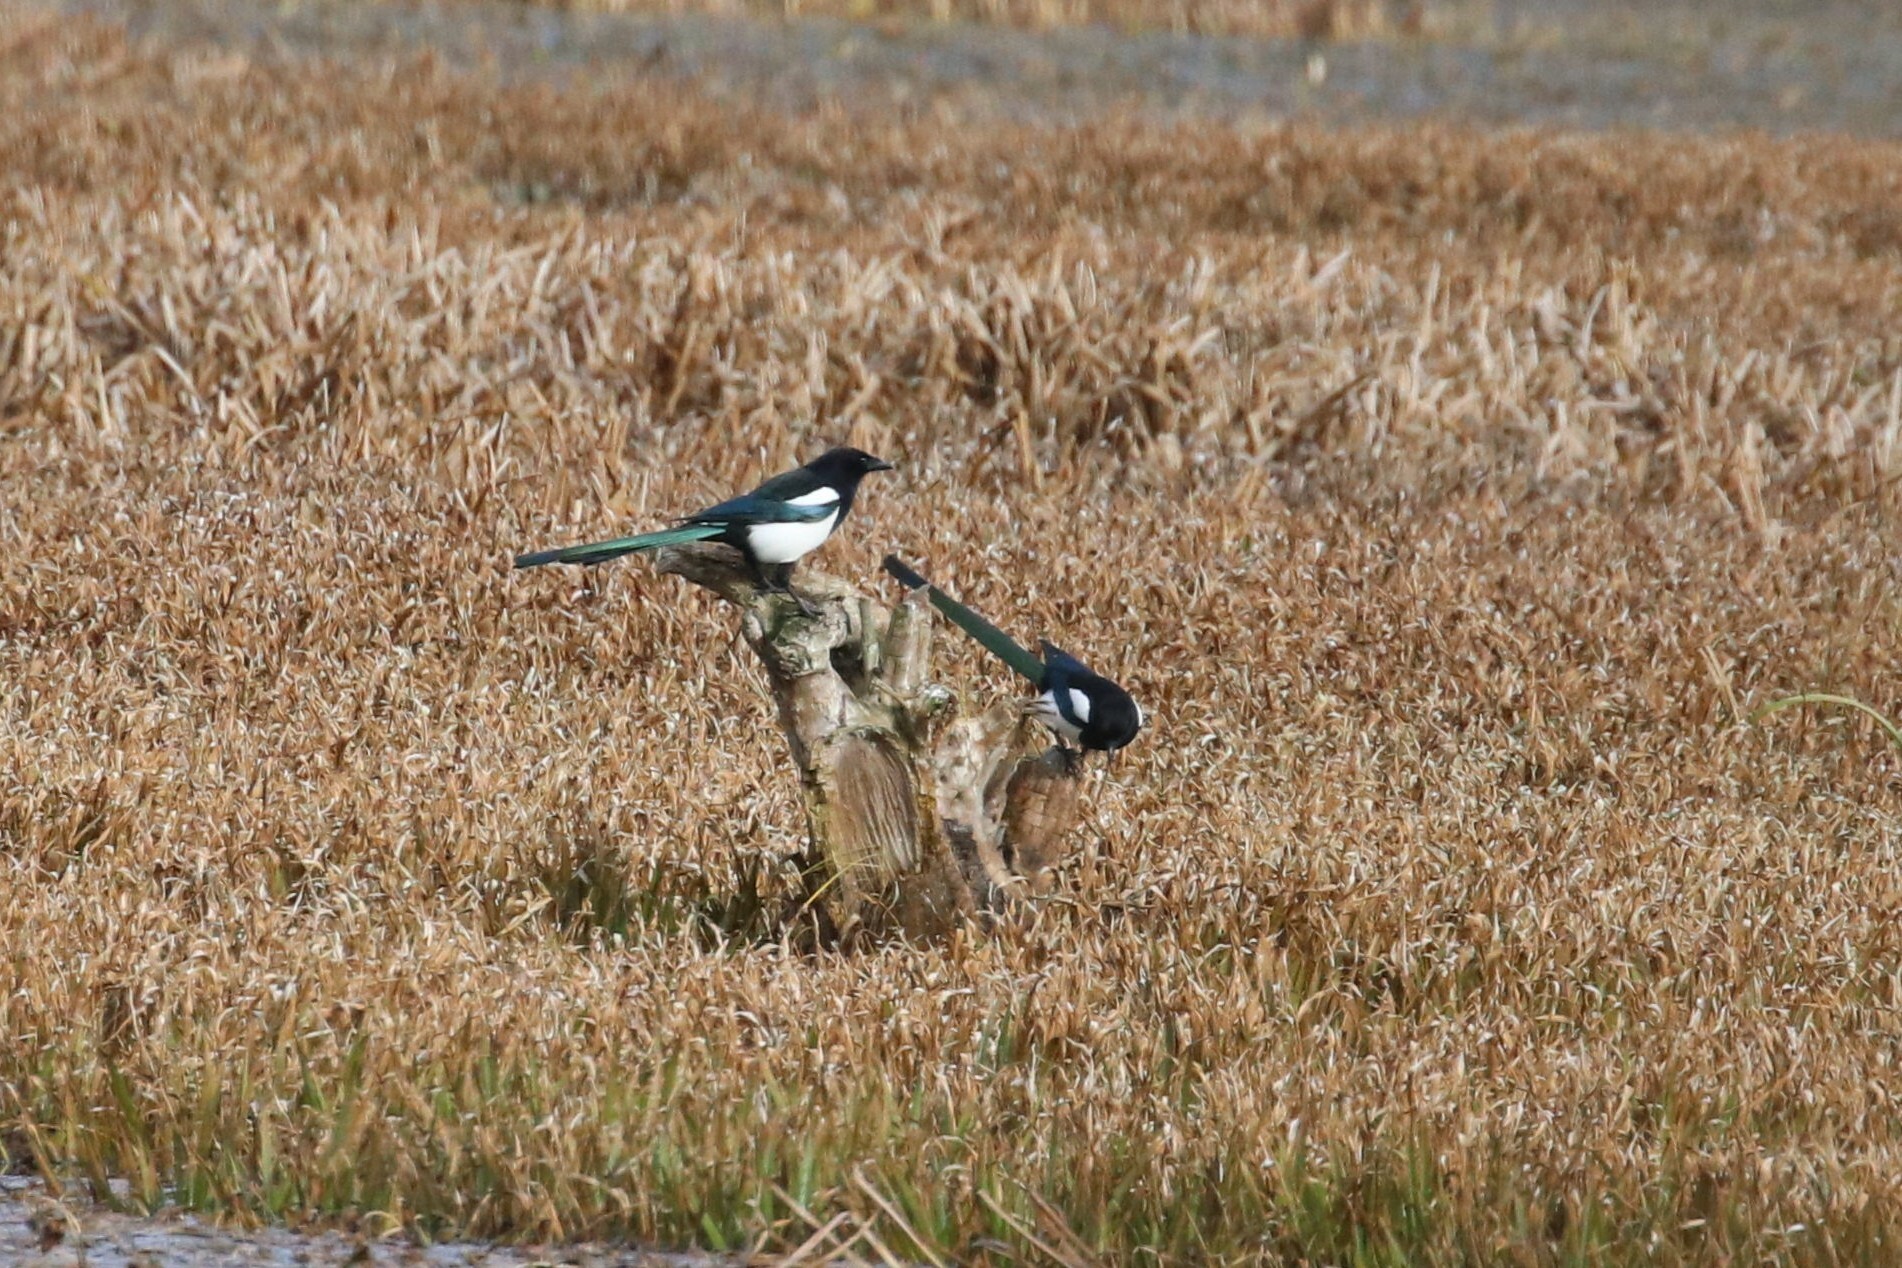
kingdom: Animalia
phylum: Chordata
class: Aves
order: Passeriformes
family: Corvidae
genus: Pica
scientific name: Pica pica
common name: Eurasian magpie
